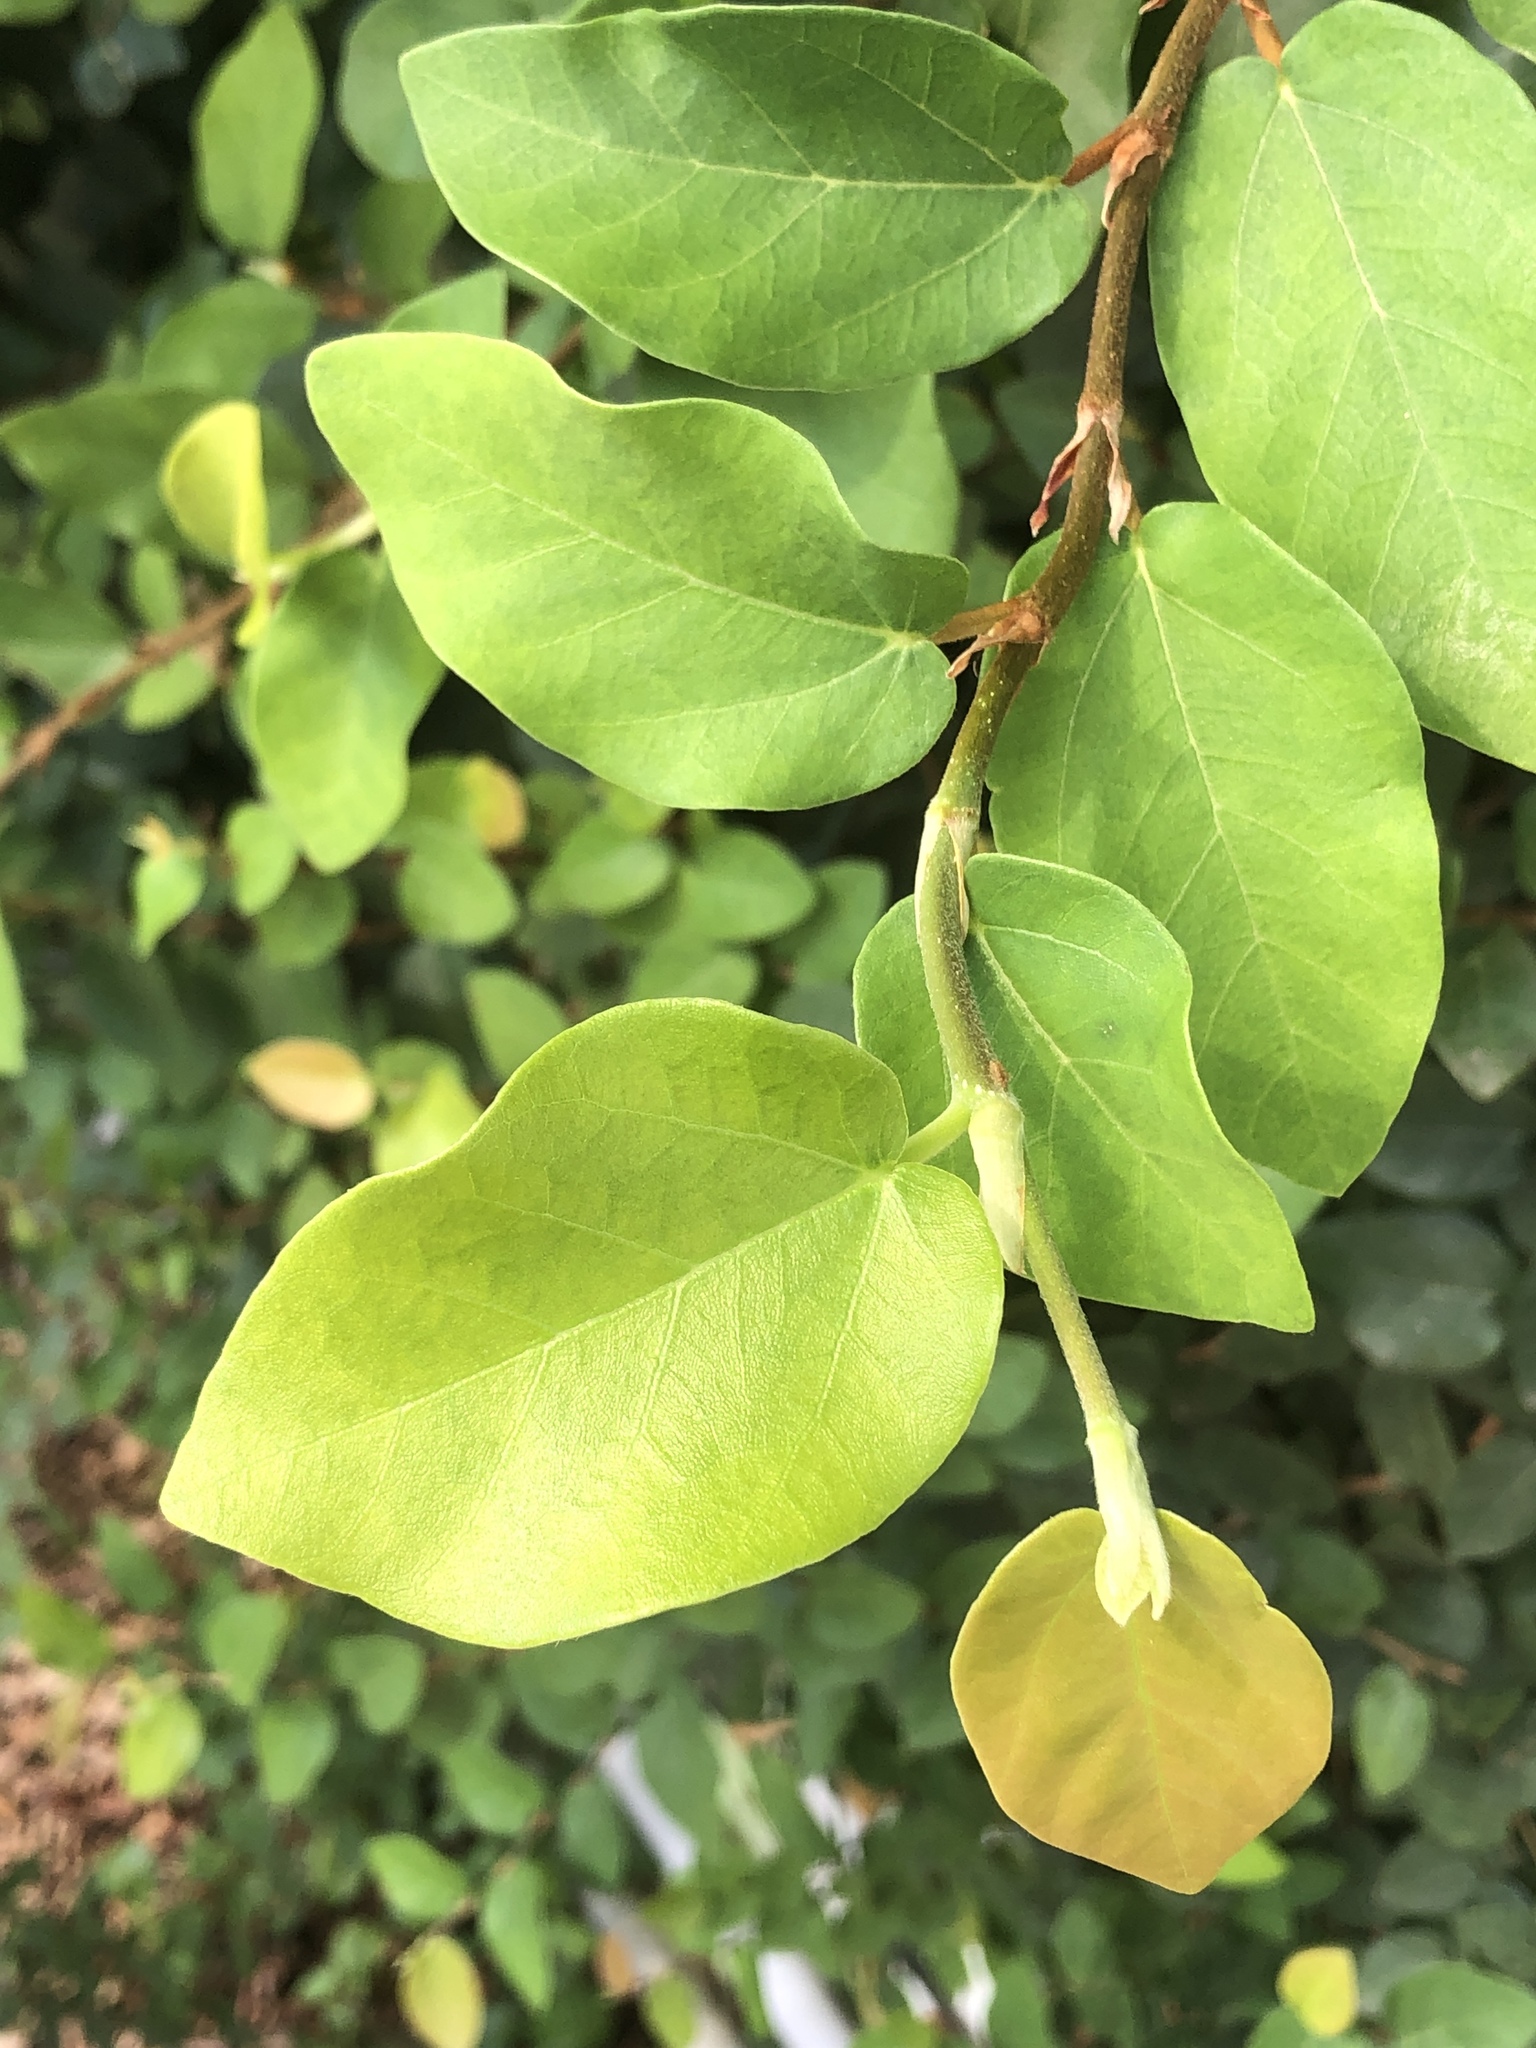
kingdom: Plantae
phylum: Tracheophyta
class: Magnoliopsida
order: Rosales
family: Moraceae
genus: Ficus
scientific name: Ficus pumila
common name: Climbingfig
